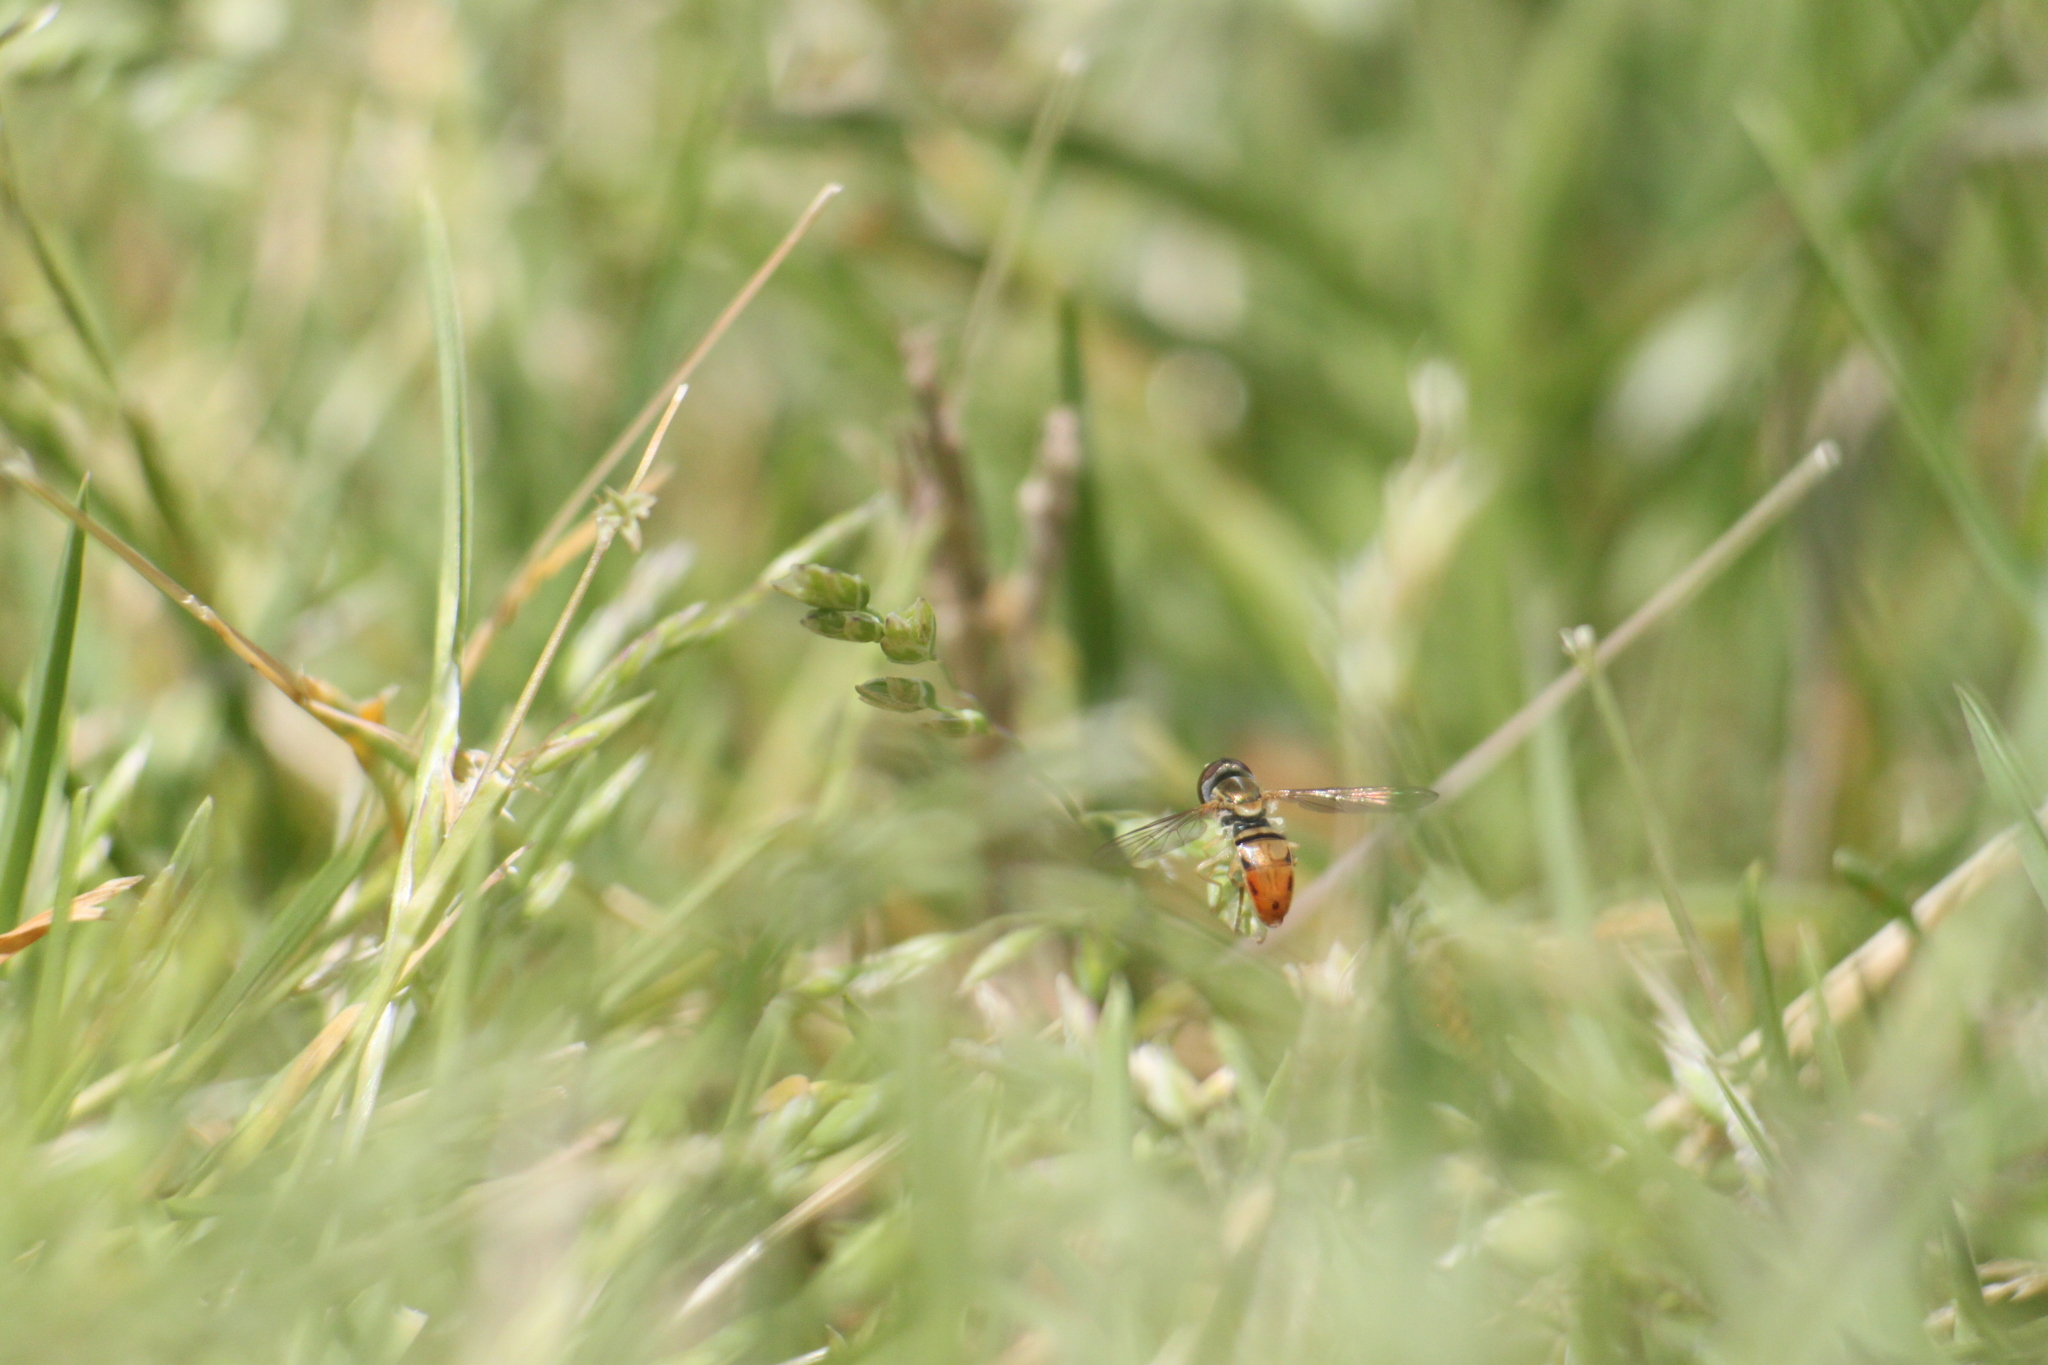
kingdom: Animalia
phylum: Arthropoda
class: Insecta
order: Diptera
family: Syrphidae
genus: Toxomerus
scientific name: Toxomerus marginatus
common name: Syrphid fly
